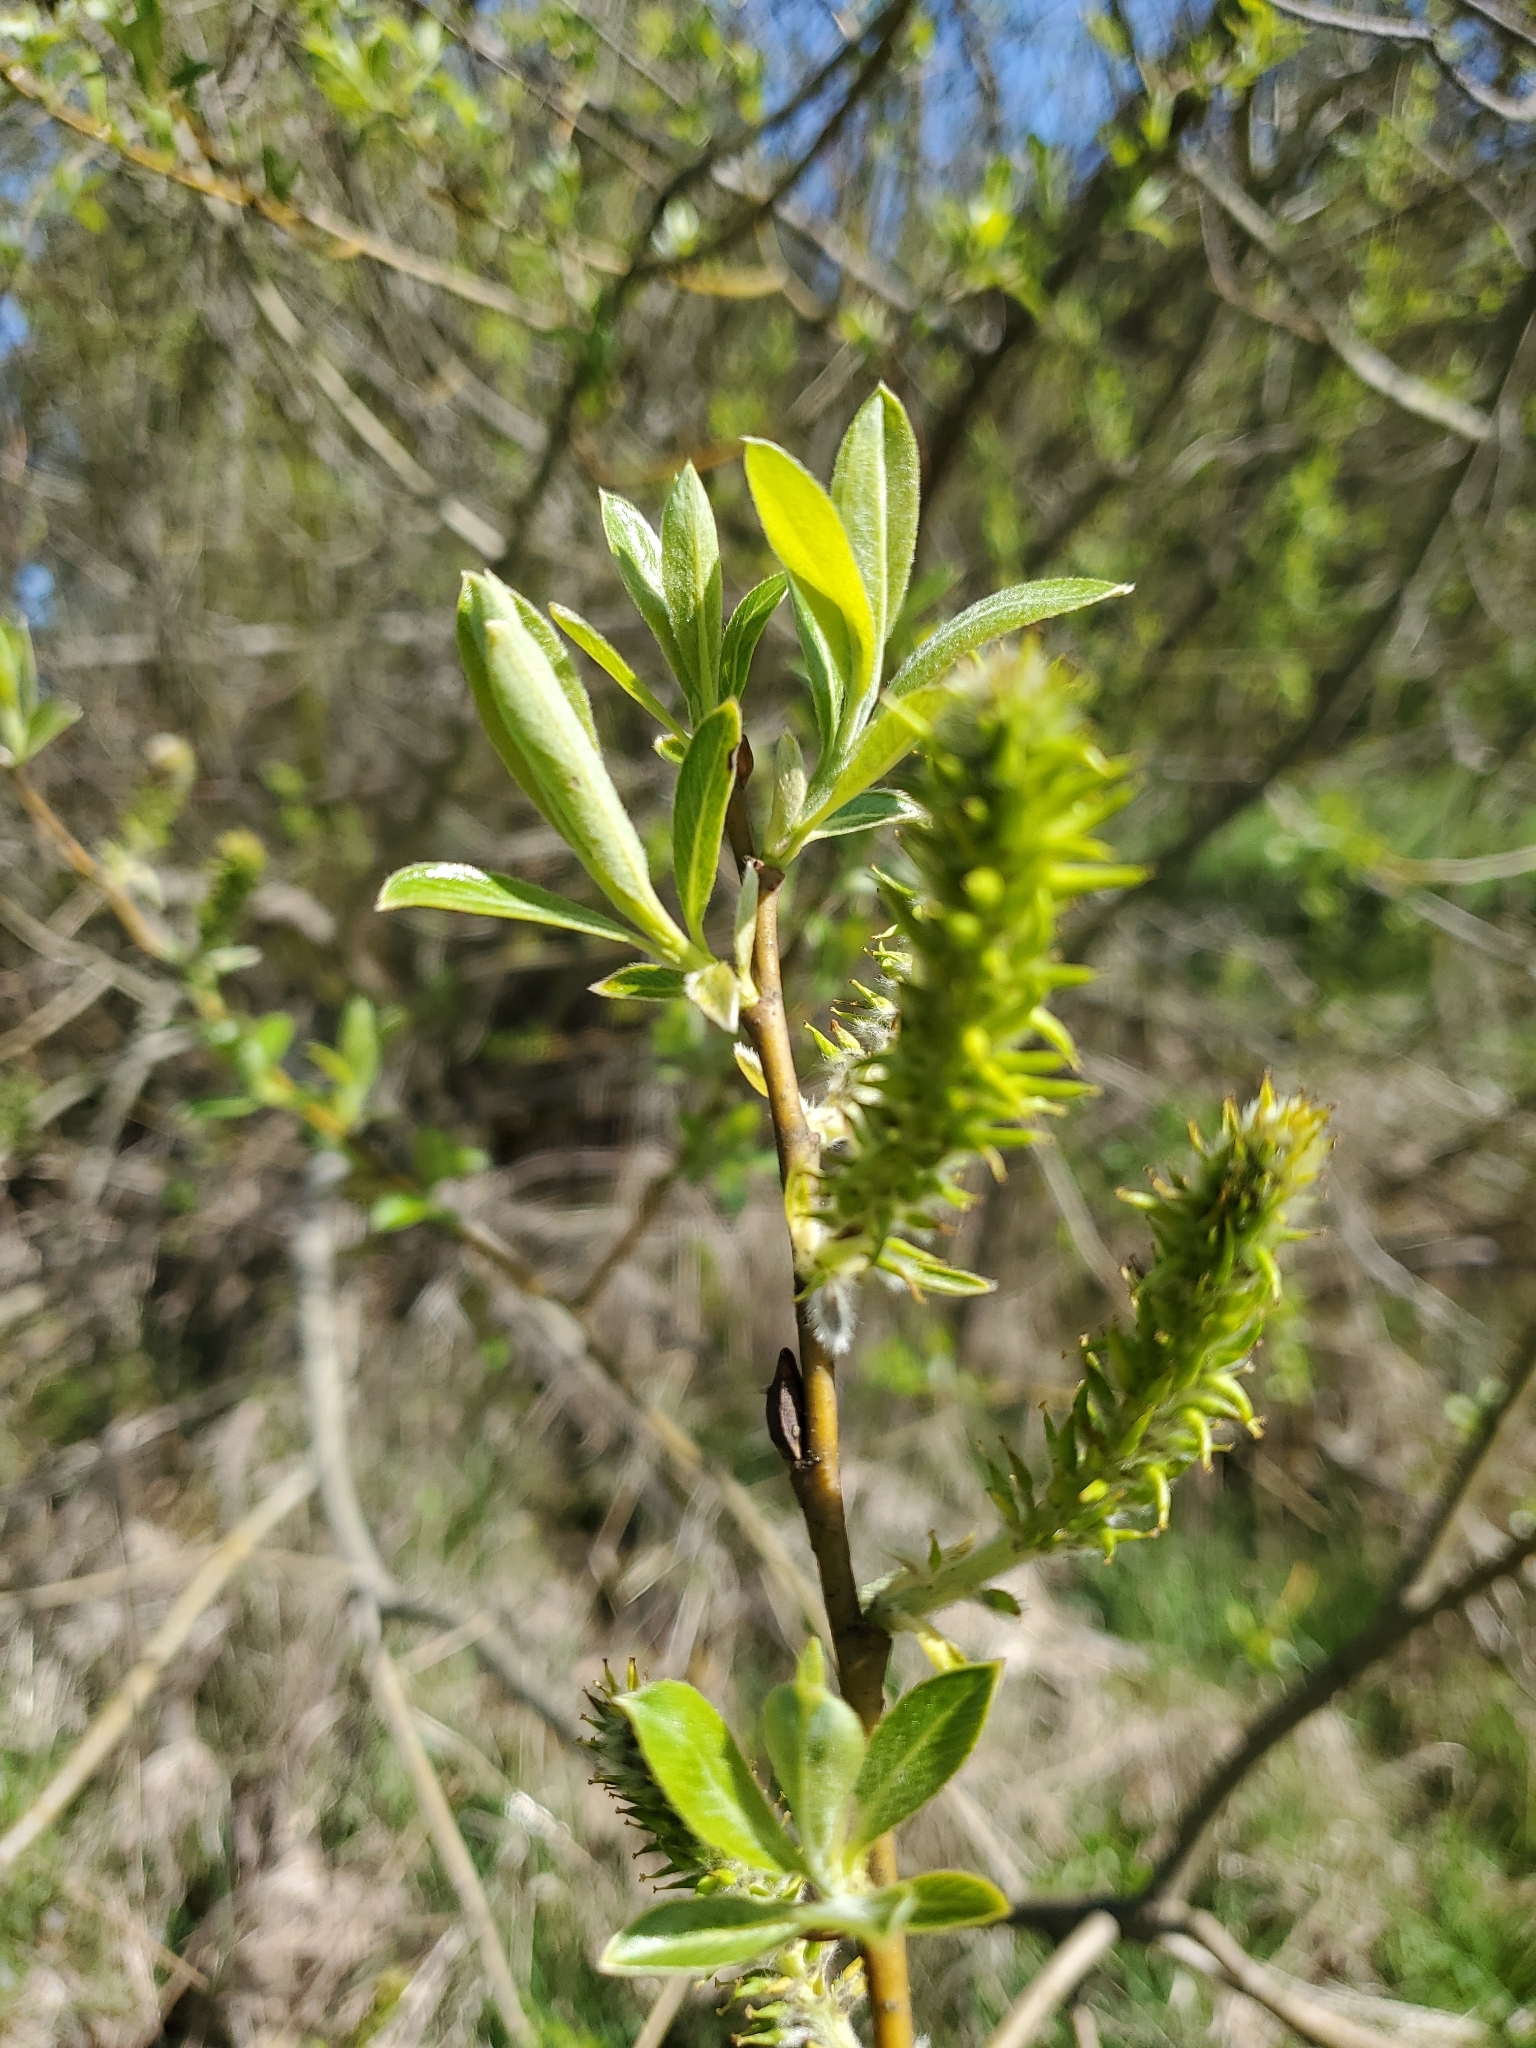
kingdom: Plantae
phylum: Tracheophyta
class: Magnoliopsida
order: Malpighiales
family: Salicaceae
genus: Salix
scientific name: Salix sitchensis
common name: Sitka willow
